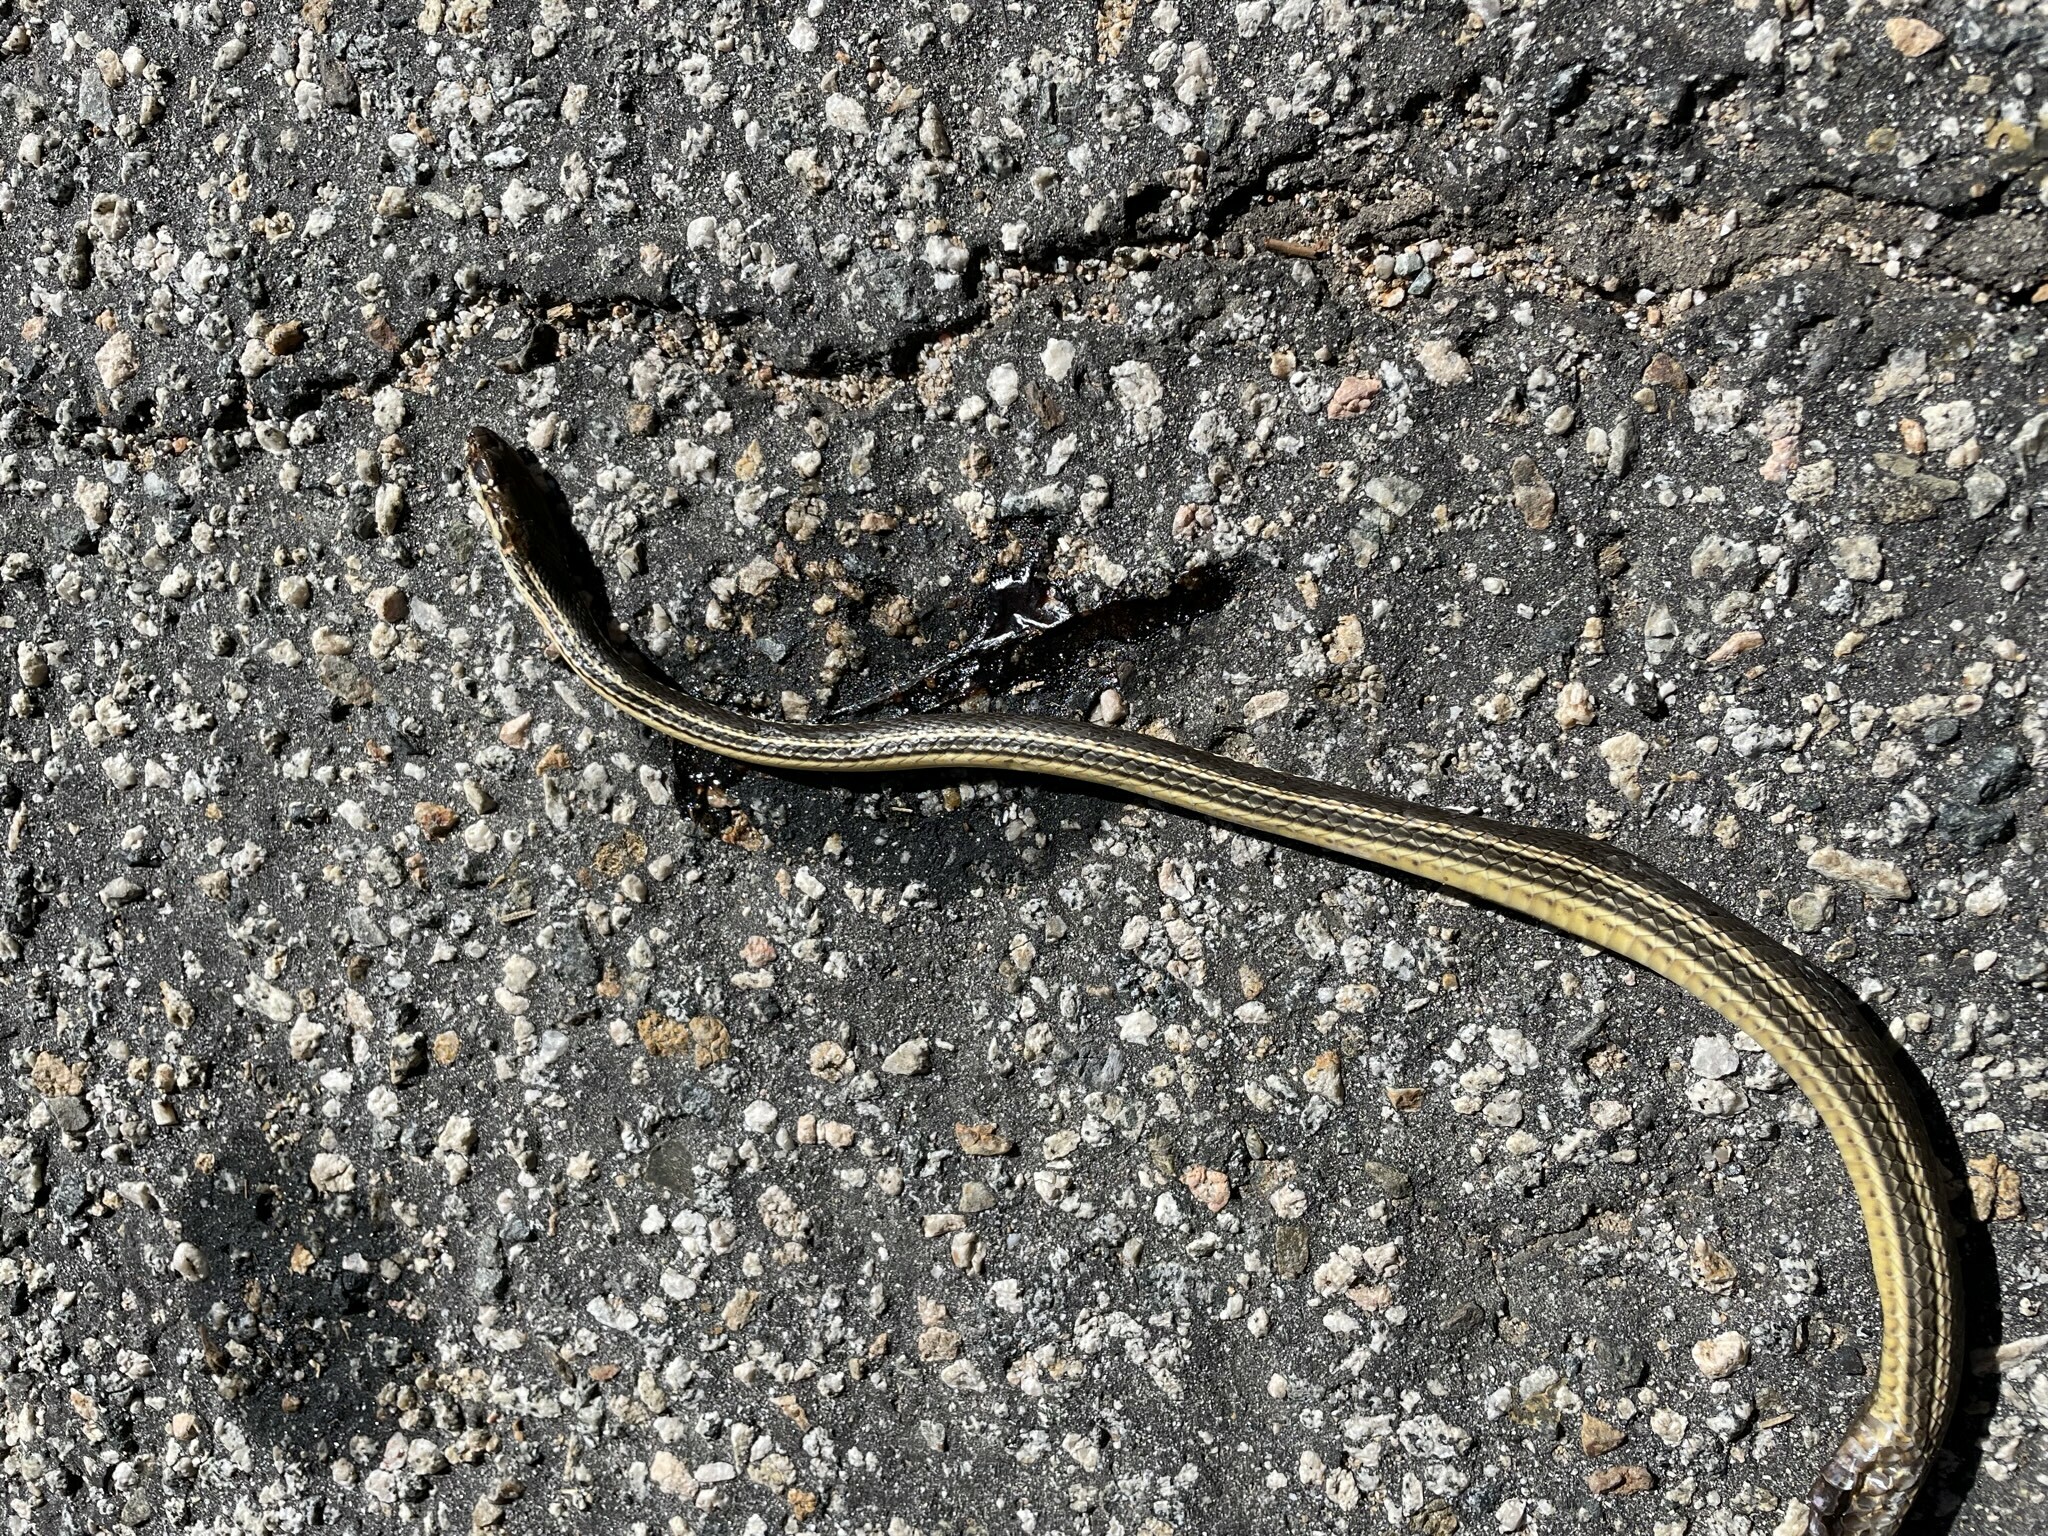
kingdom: Animalia
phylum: Chordata
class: Squamata
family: Colubridae
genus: Masticophis
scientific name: Masticophis taeniatus
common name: Striped whipsnake
